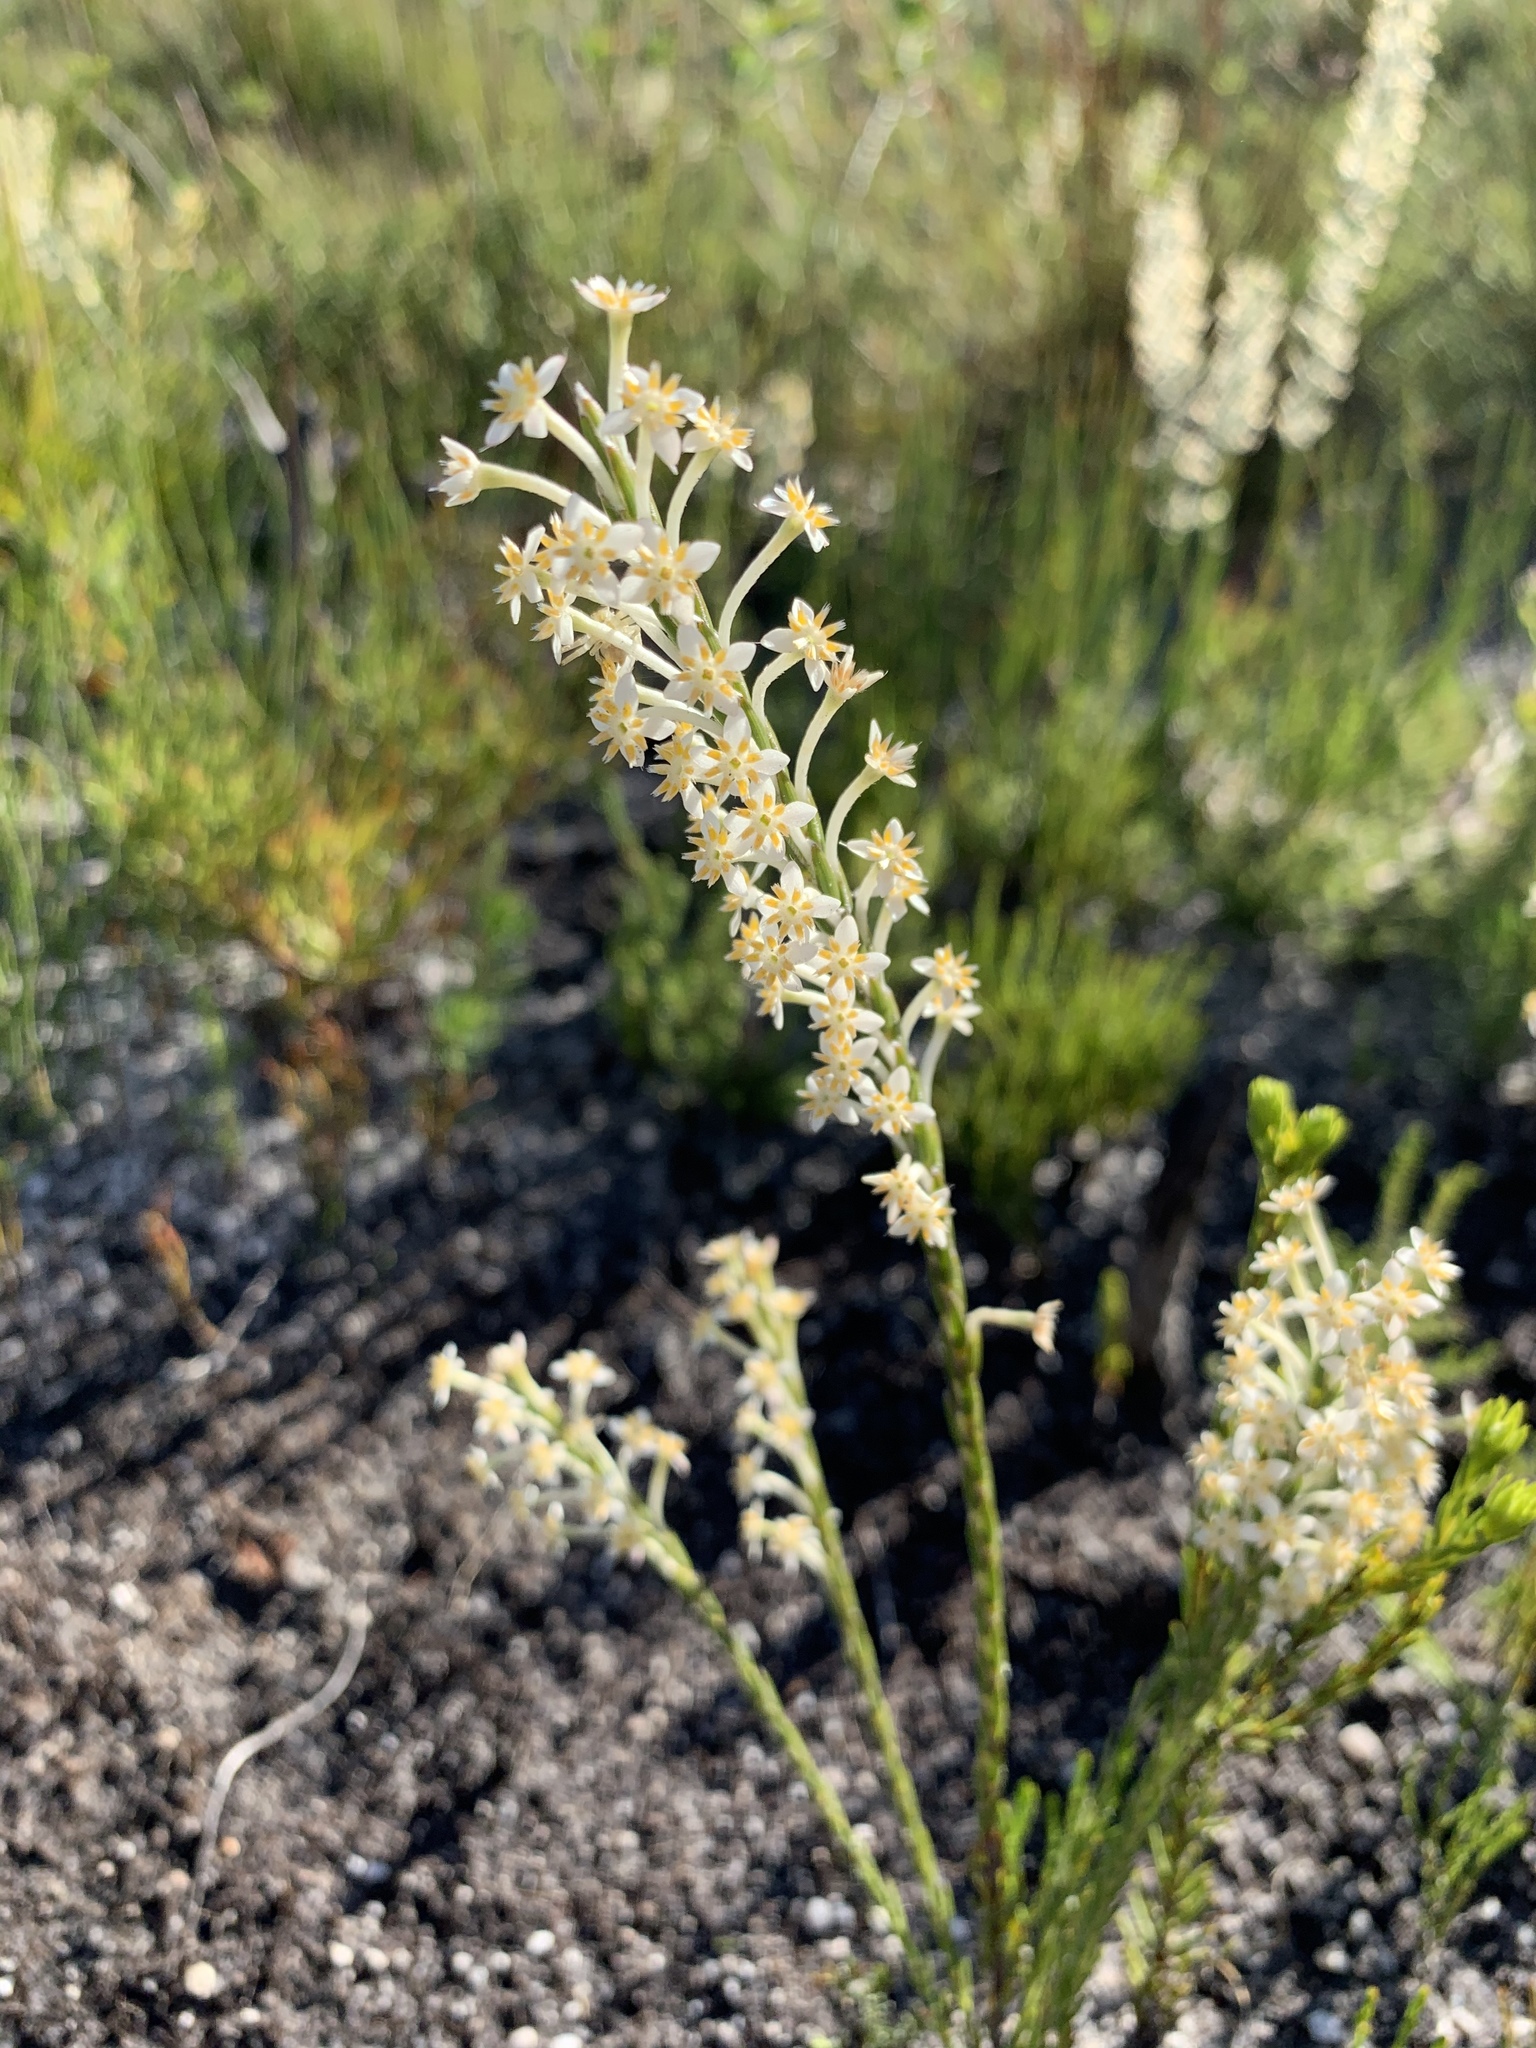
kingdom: Plantae
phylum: Tracheophyta
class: Magnoliopsida
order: Malvales
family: Thymelaeaceae
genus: Struthiola
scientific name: Struthiola ciliata
